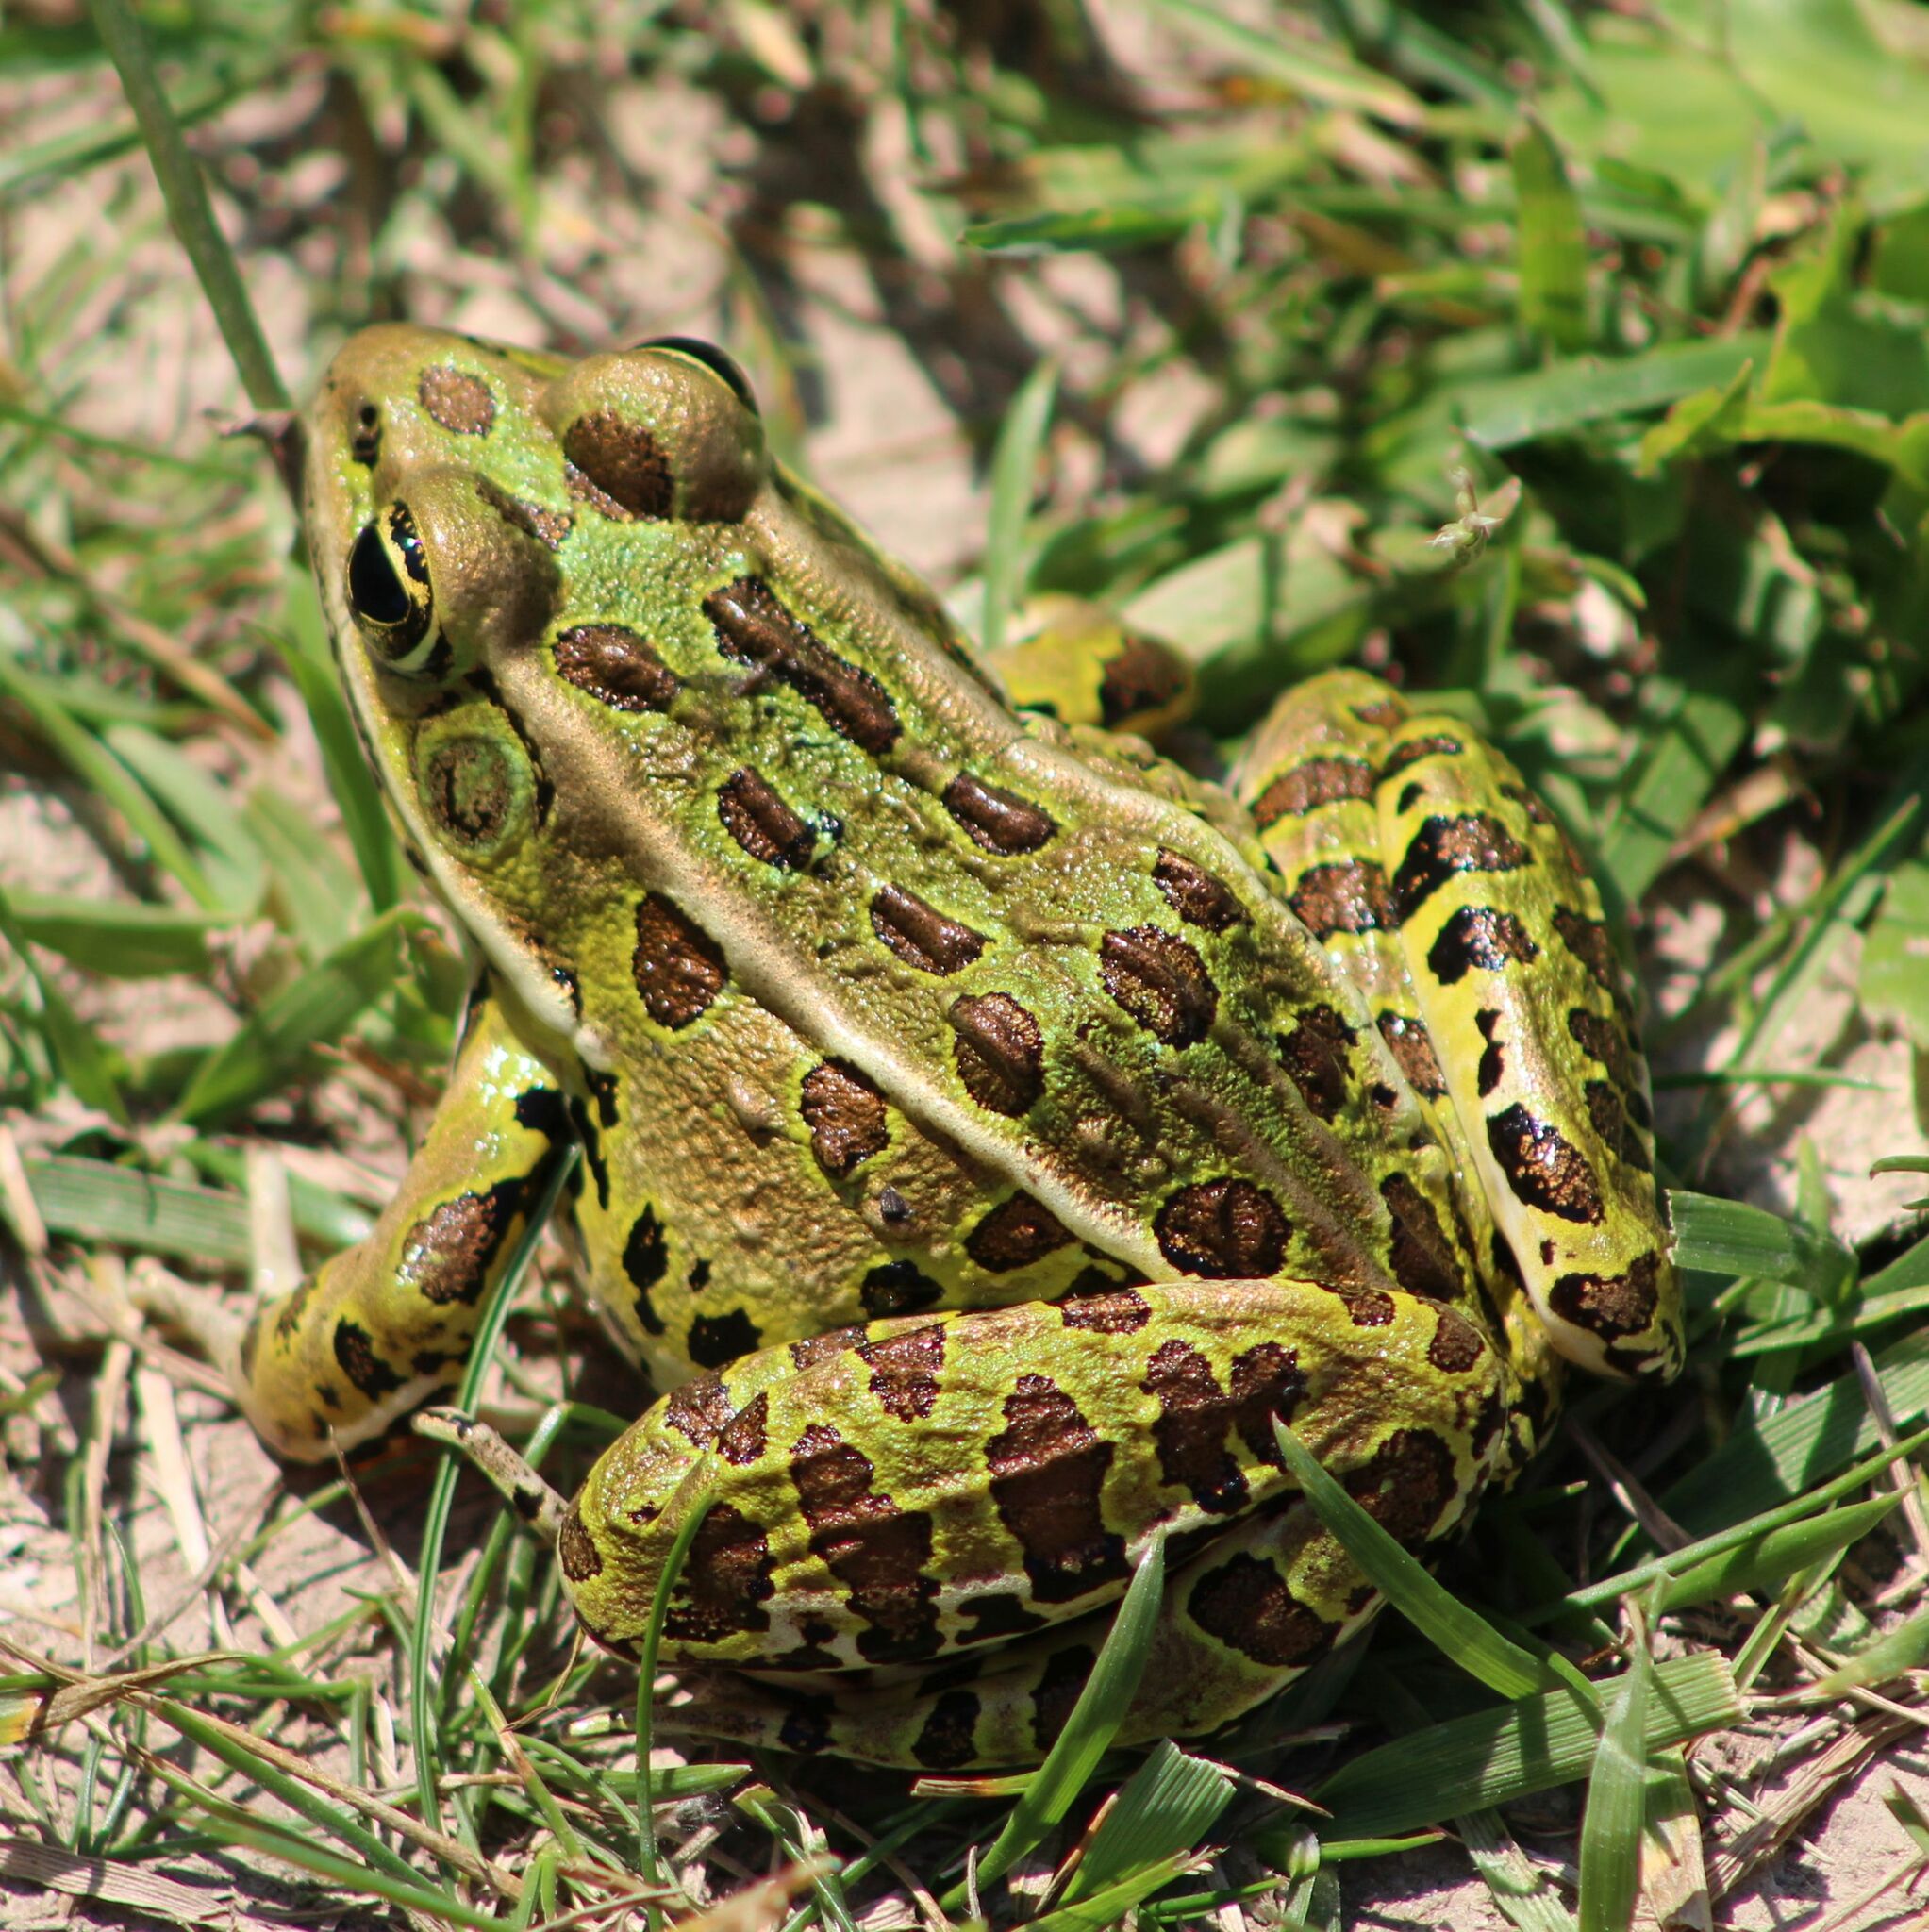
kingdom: Animalia
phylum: Chordata
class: Amphibia
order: Anura
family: Ranidae
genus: Lithobates
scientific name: Lithobates pipiens
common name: Northern leopard frog
